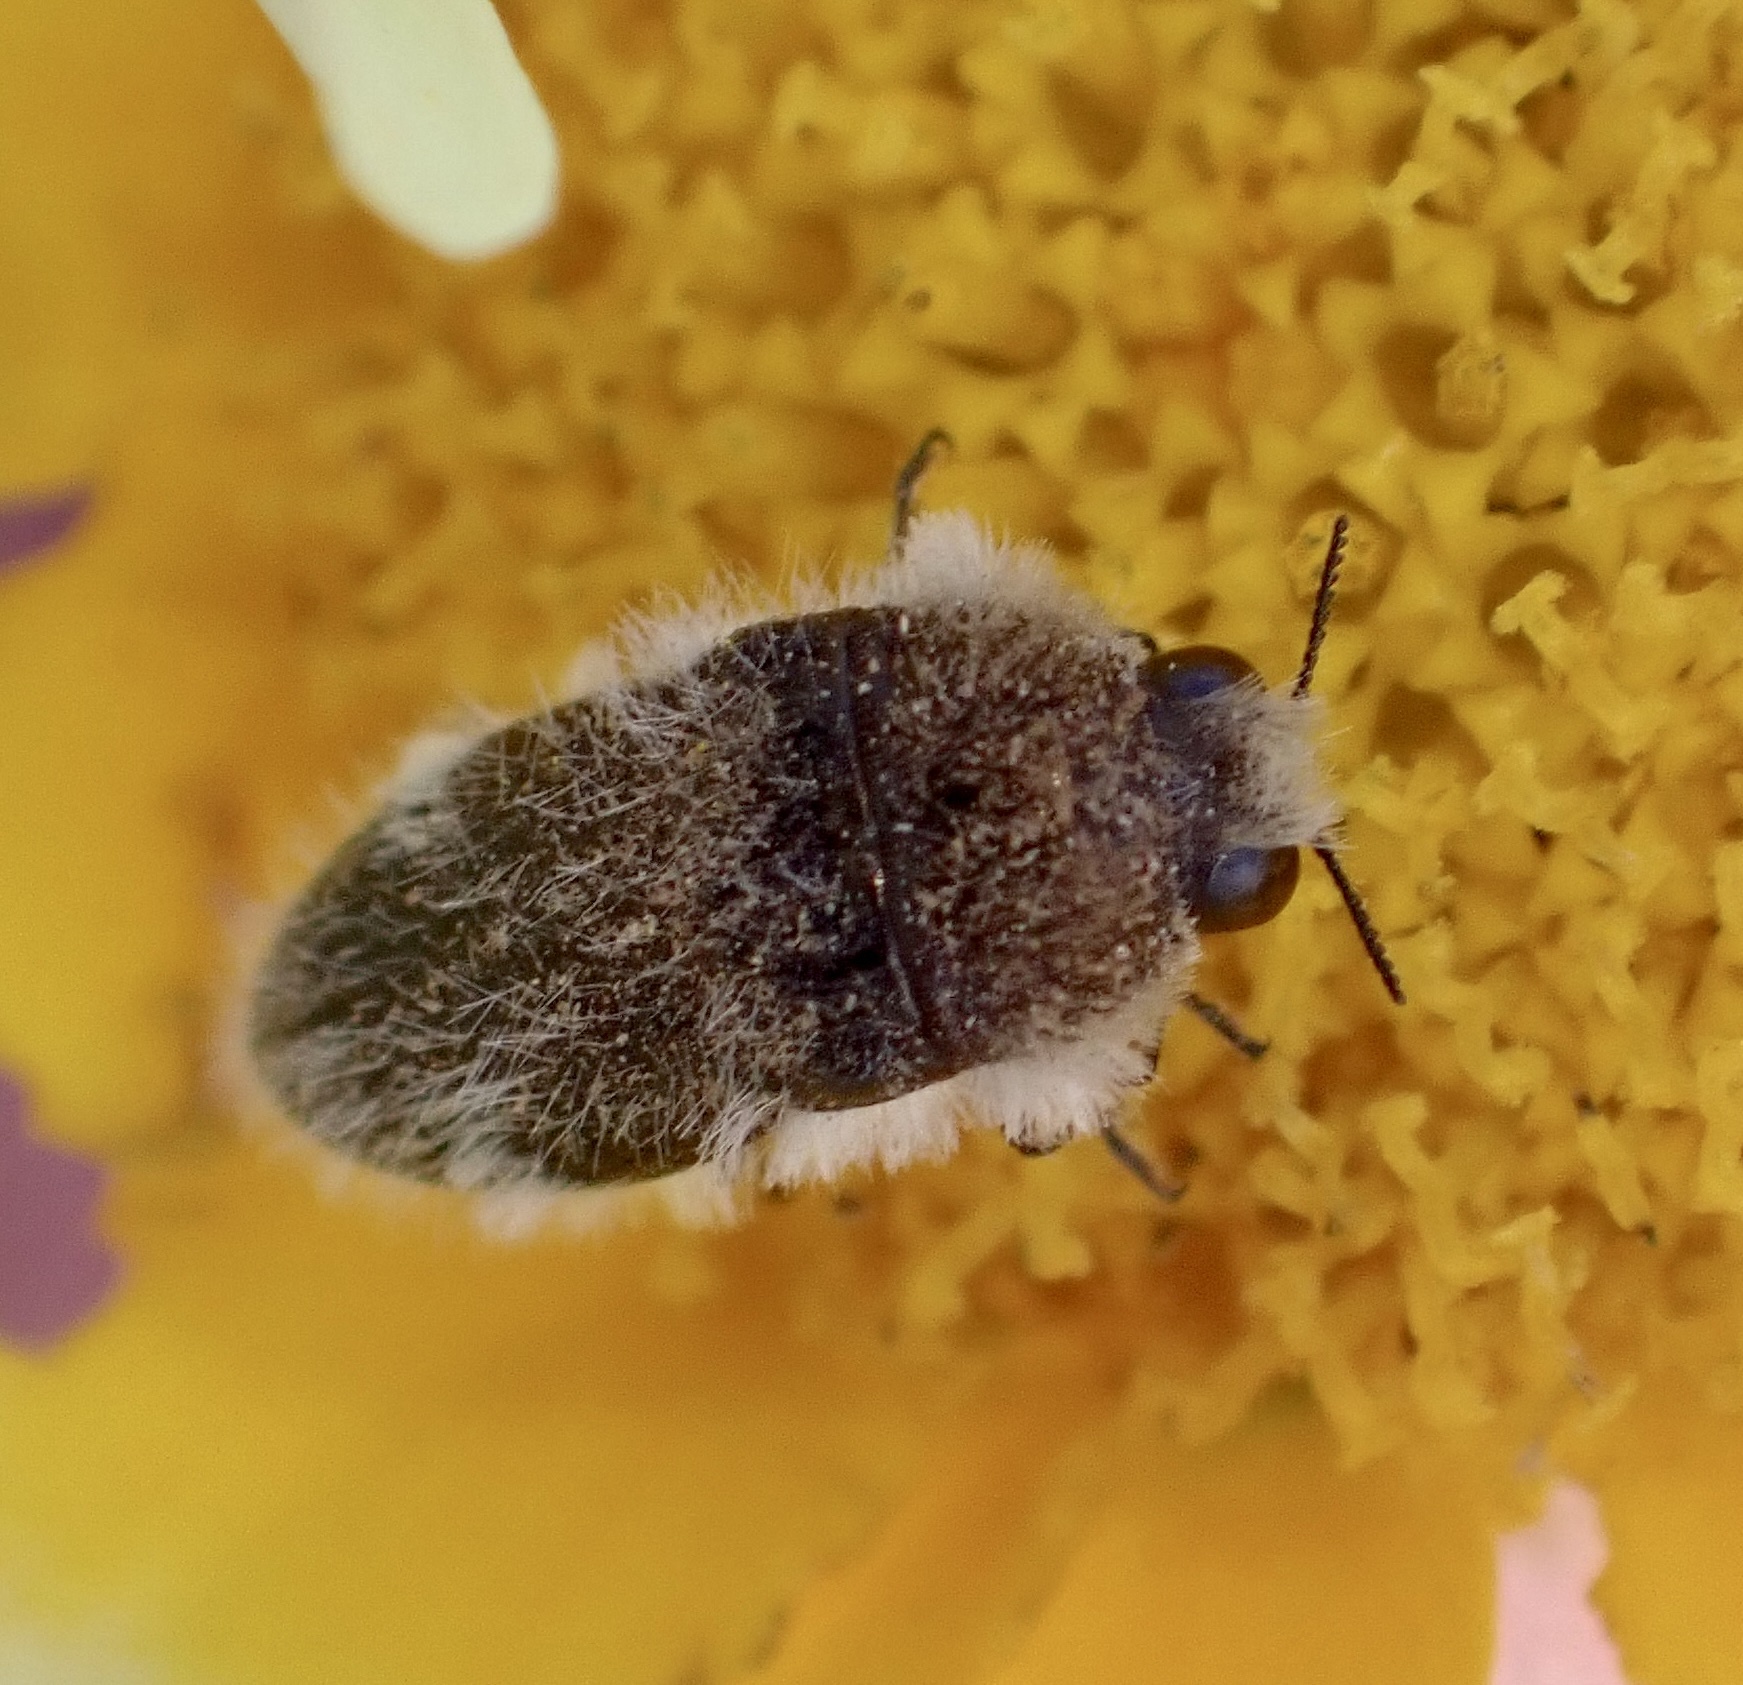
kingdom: Animalia
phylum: Arthropoda
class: Insecta
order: Coleoptera
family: Buprestidae
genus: Acmaeoderella
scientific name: Acmaeoderella lanuginosa
